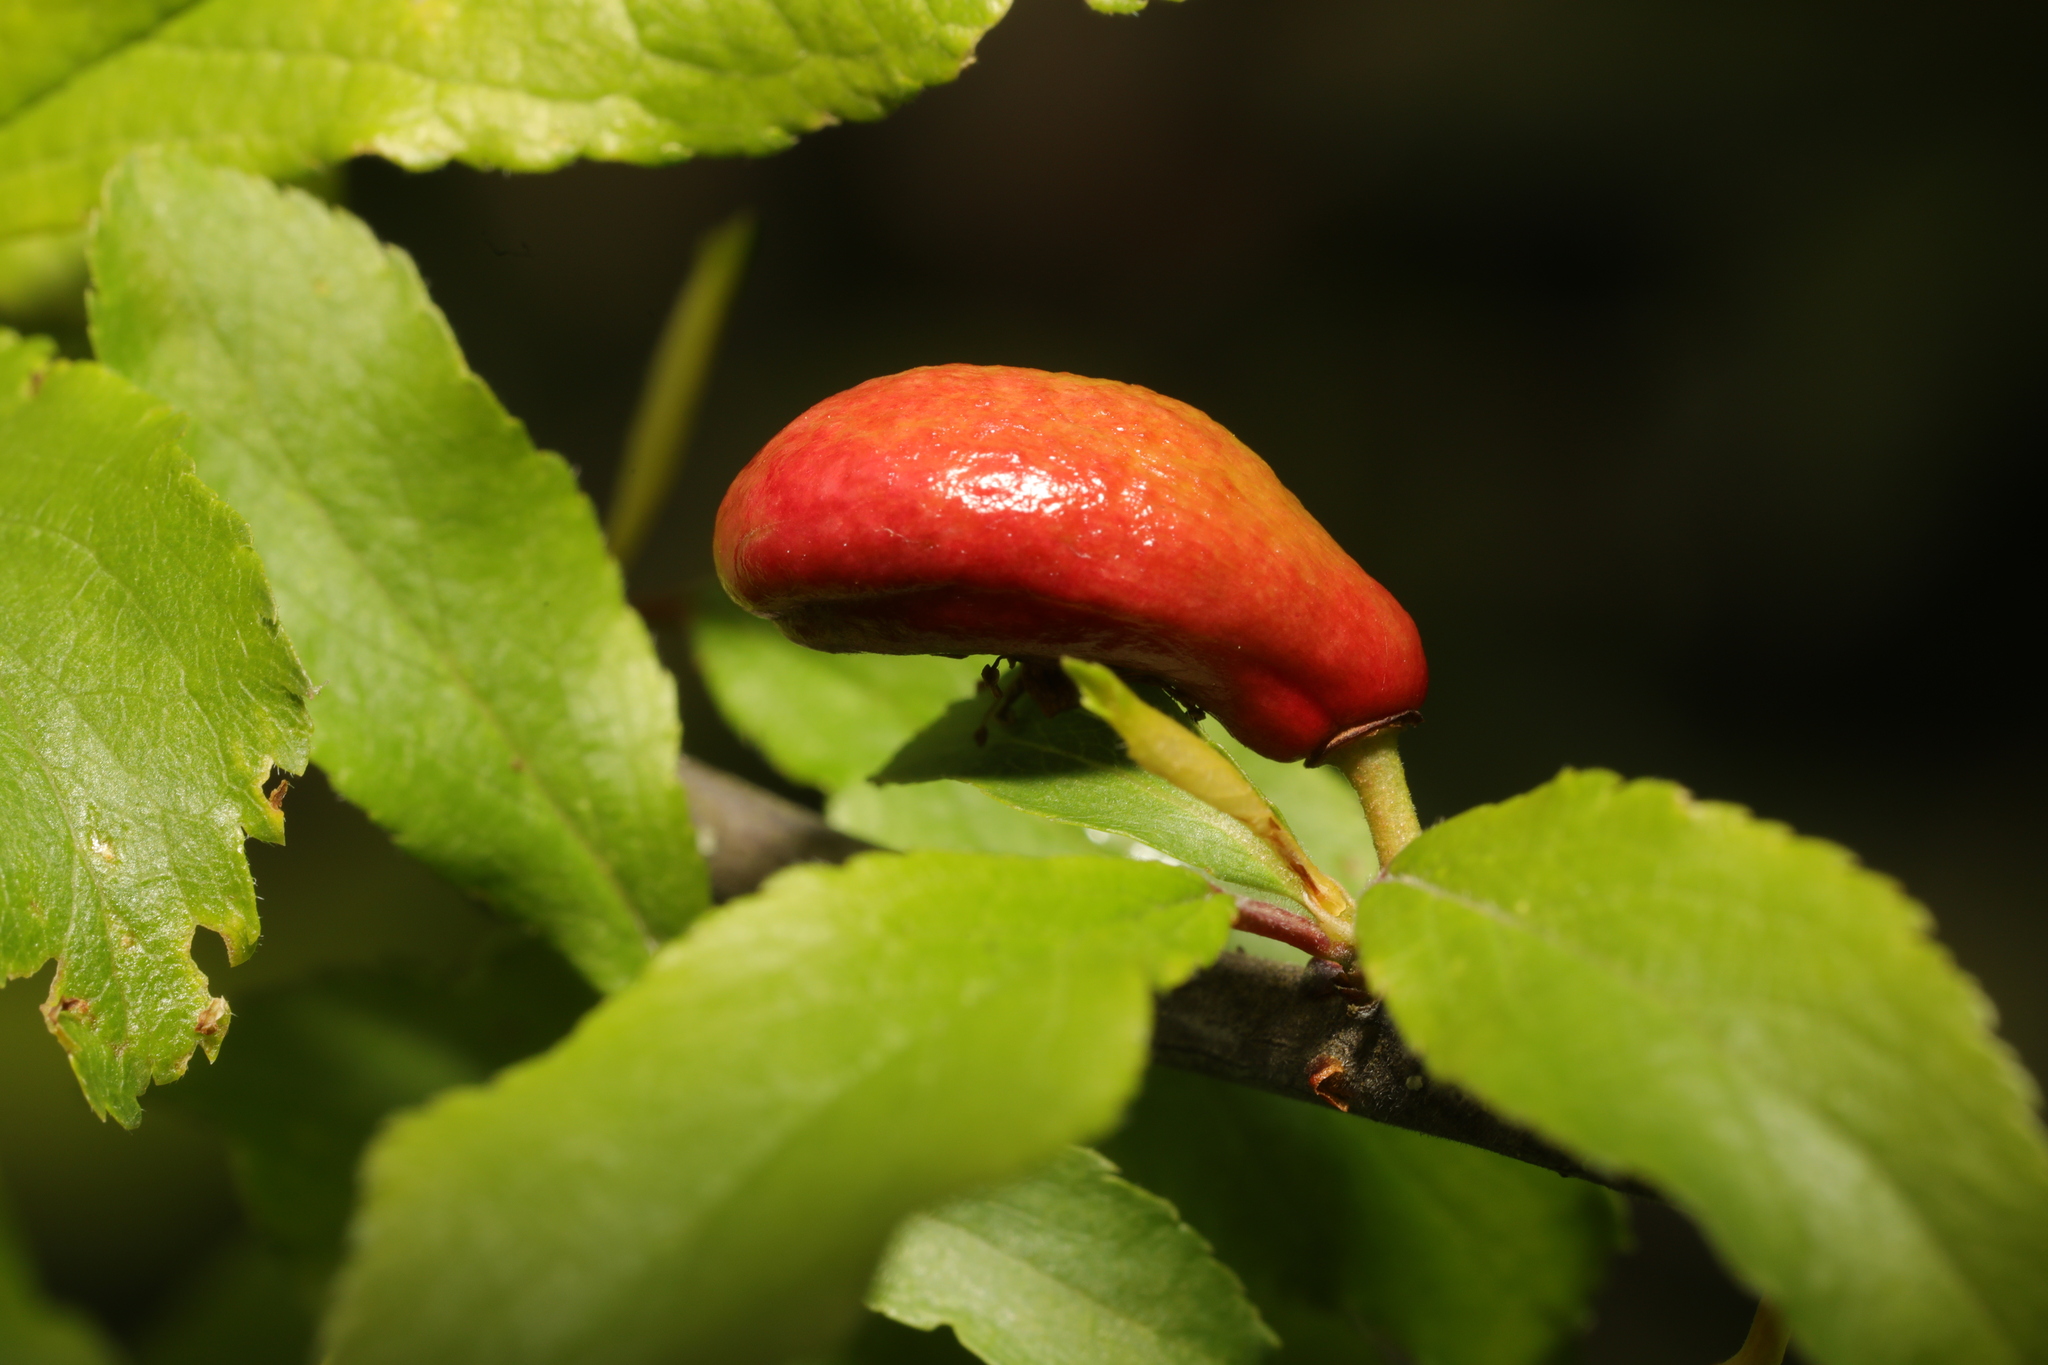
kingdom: Fungi
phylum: Ascomycota
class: Taphrinomycetes
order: Taphrinales
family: Taphrinaceae
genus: Taphrina
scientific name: Taphrina pruni
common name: Pocket plum
